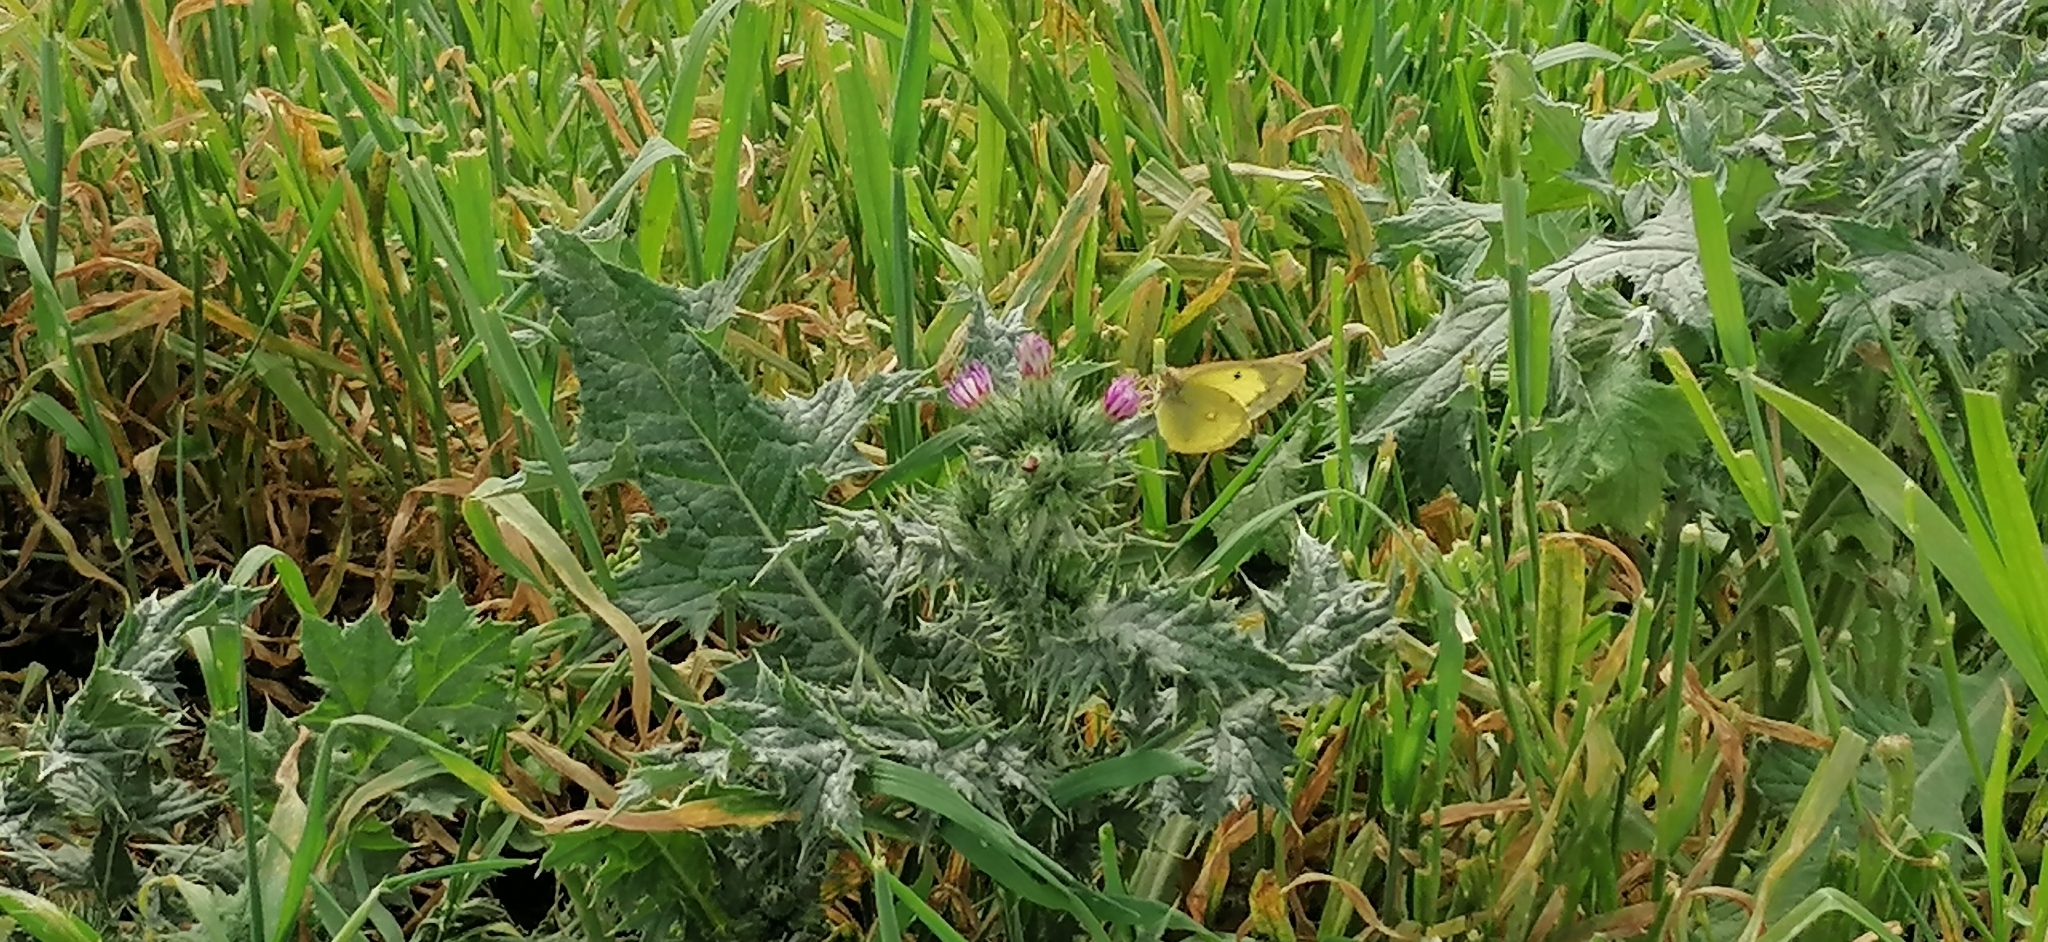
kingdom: Animalia
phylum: Arthropoda
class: Insecta
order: Lepidoptera
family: Pieridae
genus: Colias
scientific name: Colias erate
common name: Eastern pale clouded yellow
